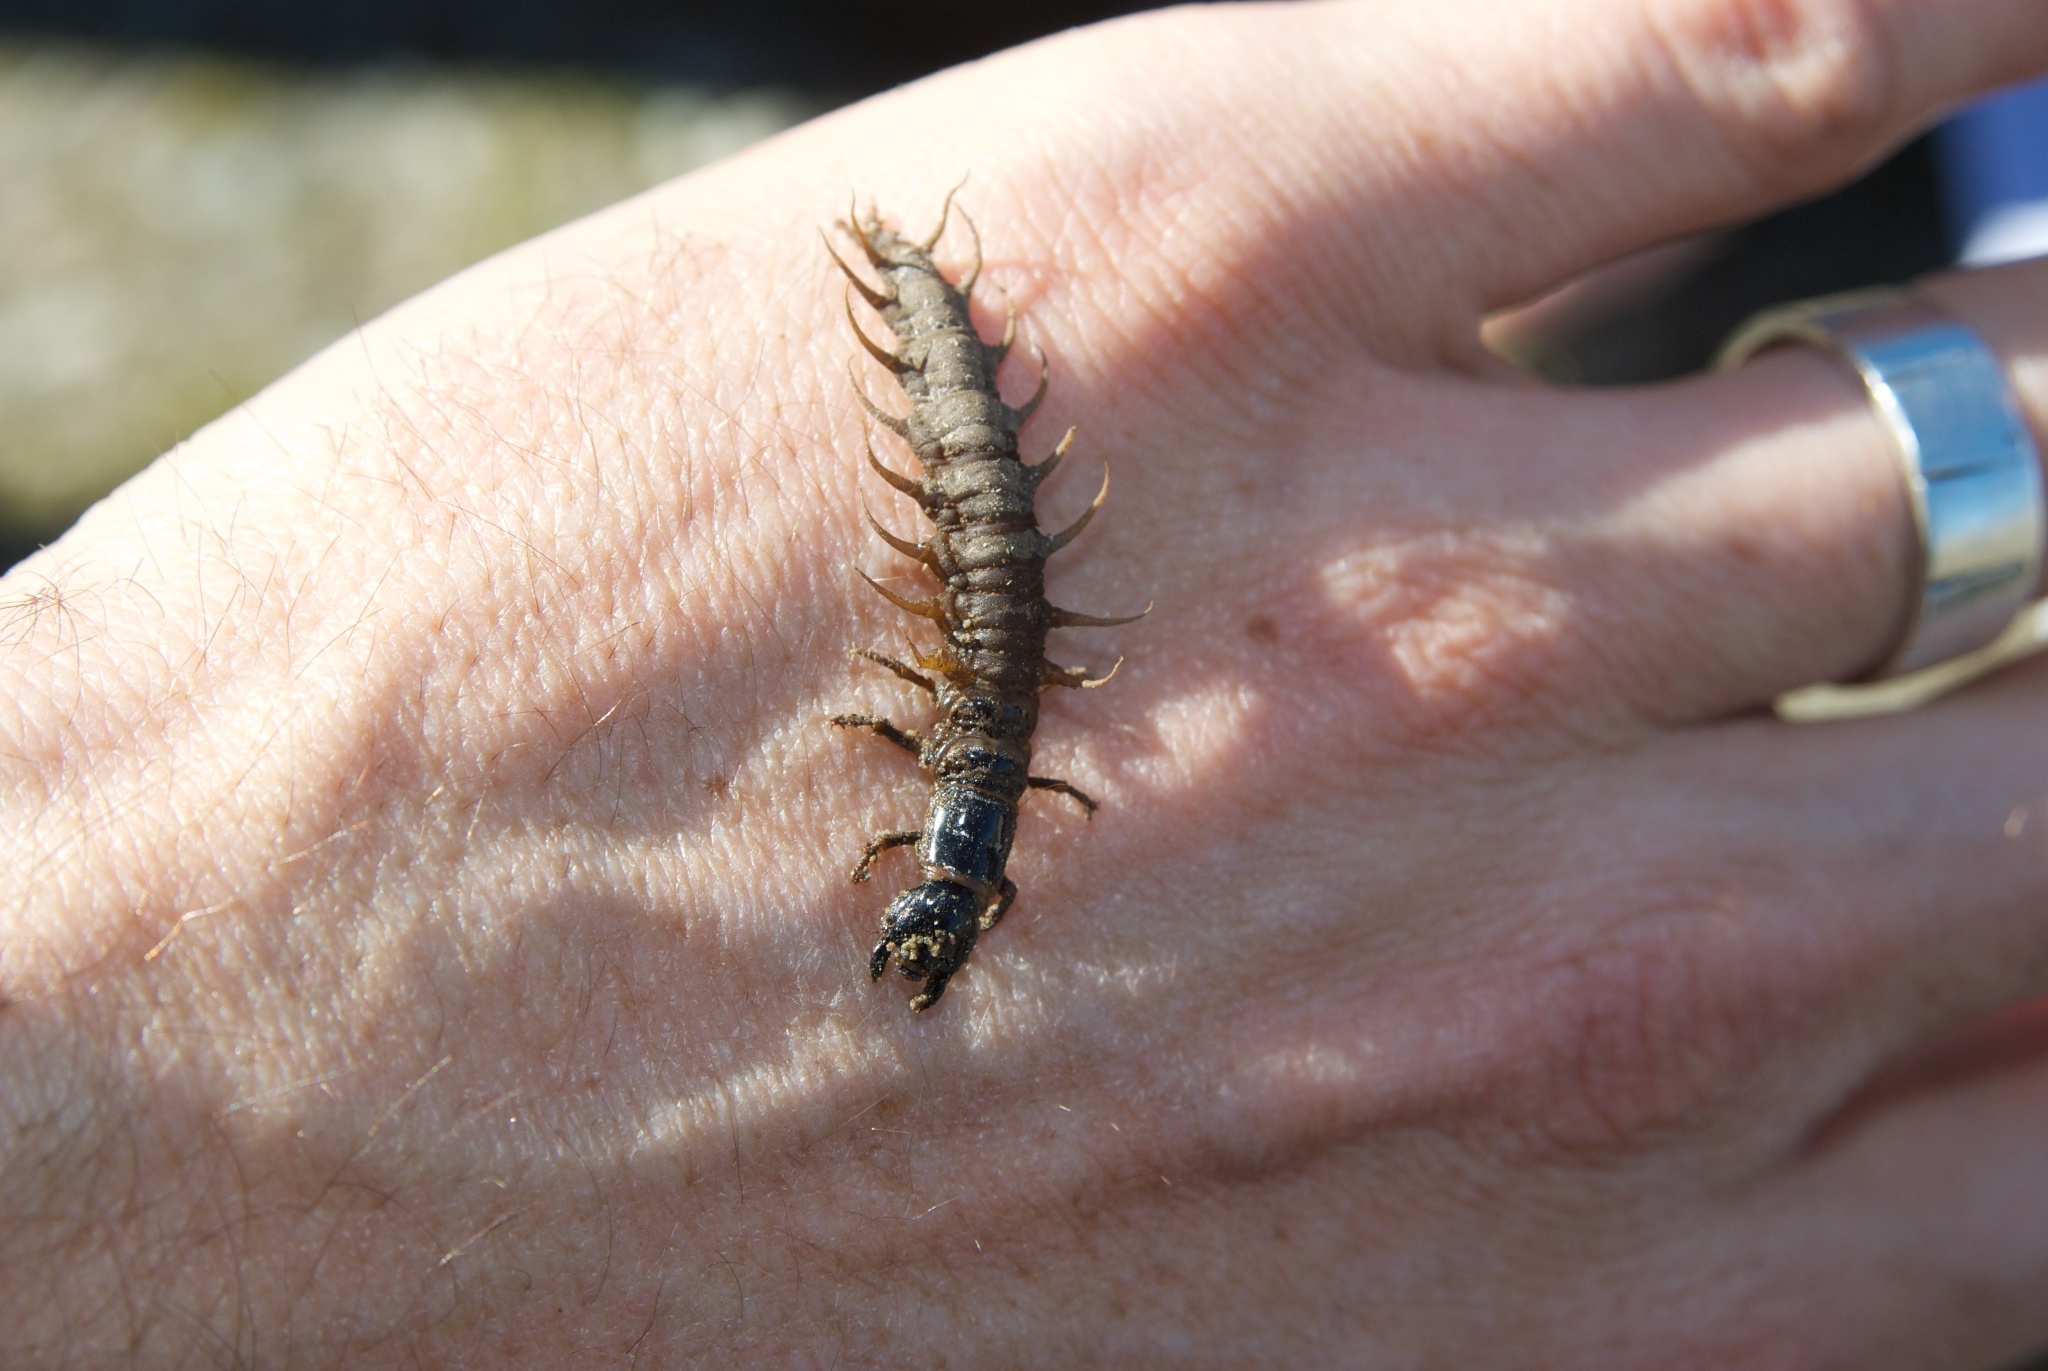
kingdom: Animalia
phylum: Arthropoda
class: Insecta
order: Megaloptera
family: Corydalidae
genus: Archichauliodes
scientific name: Archichauliodes diversus
